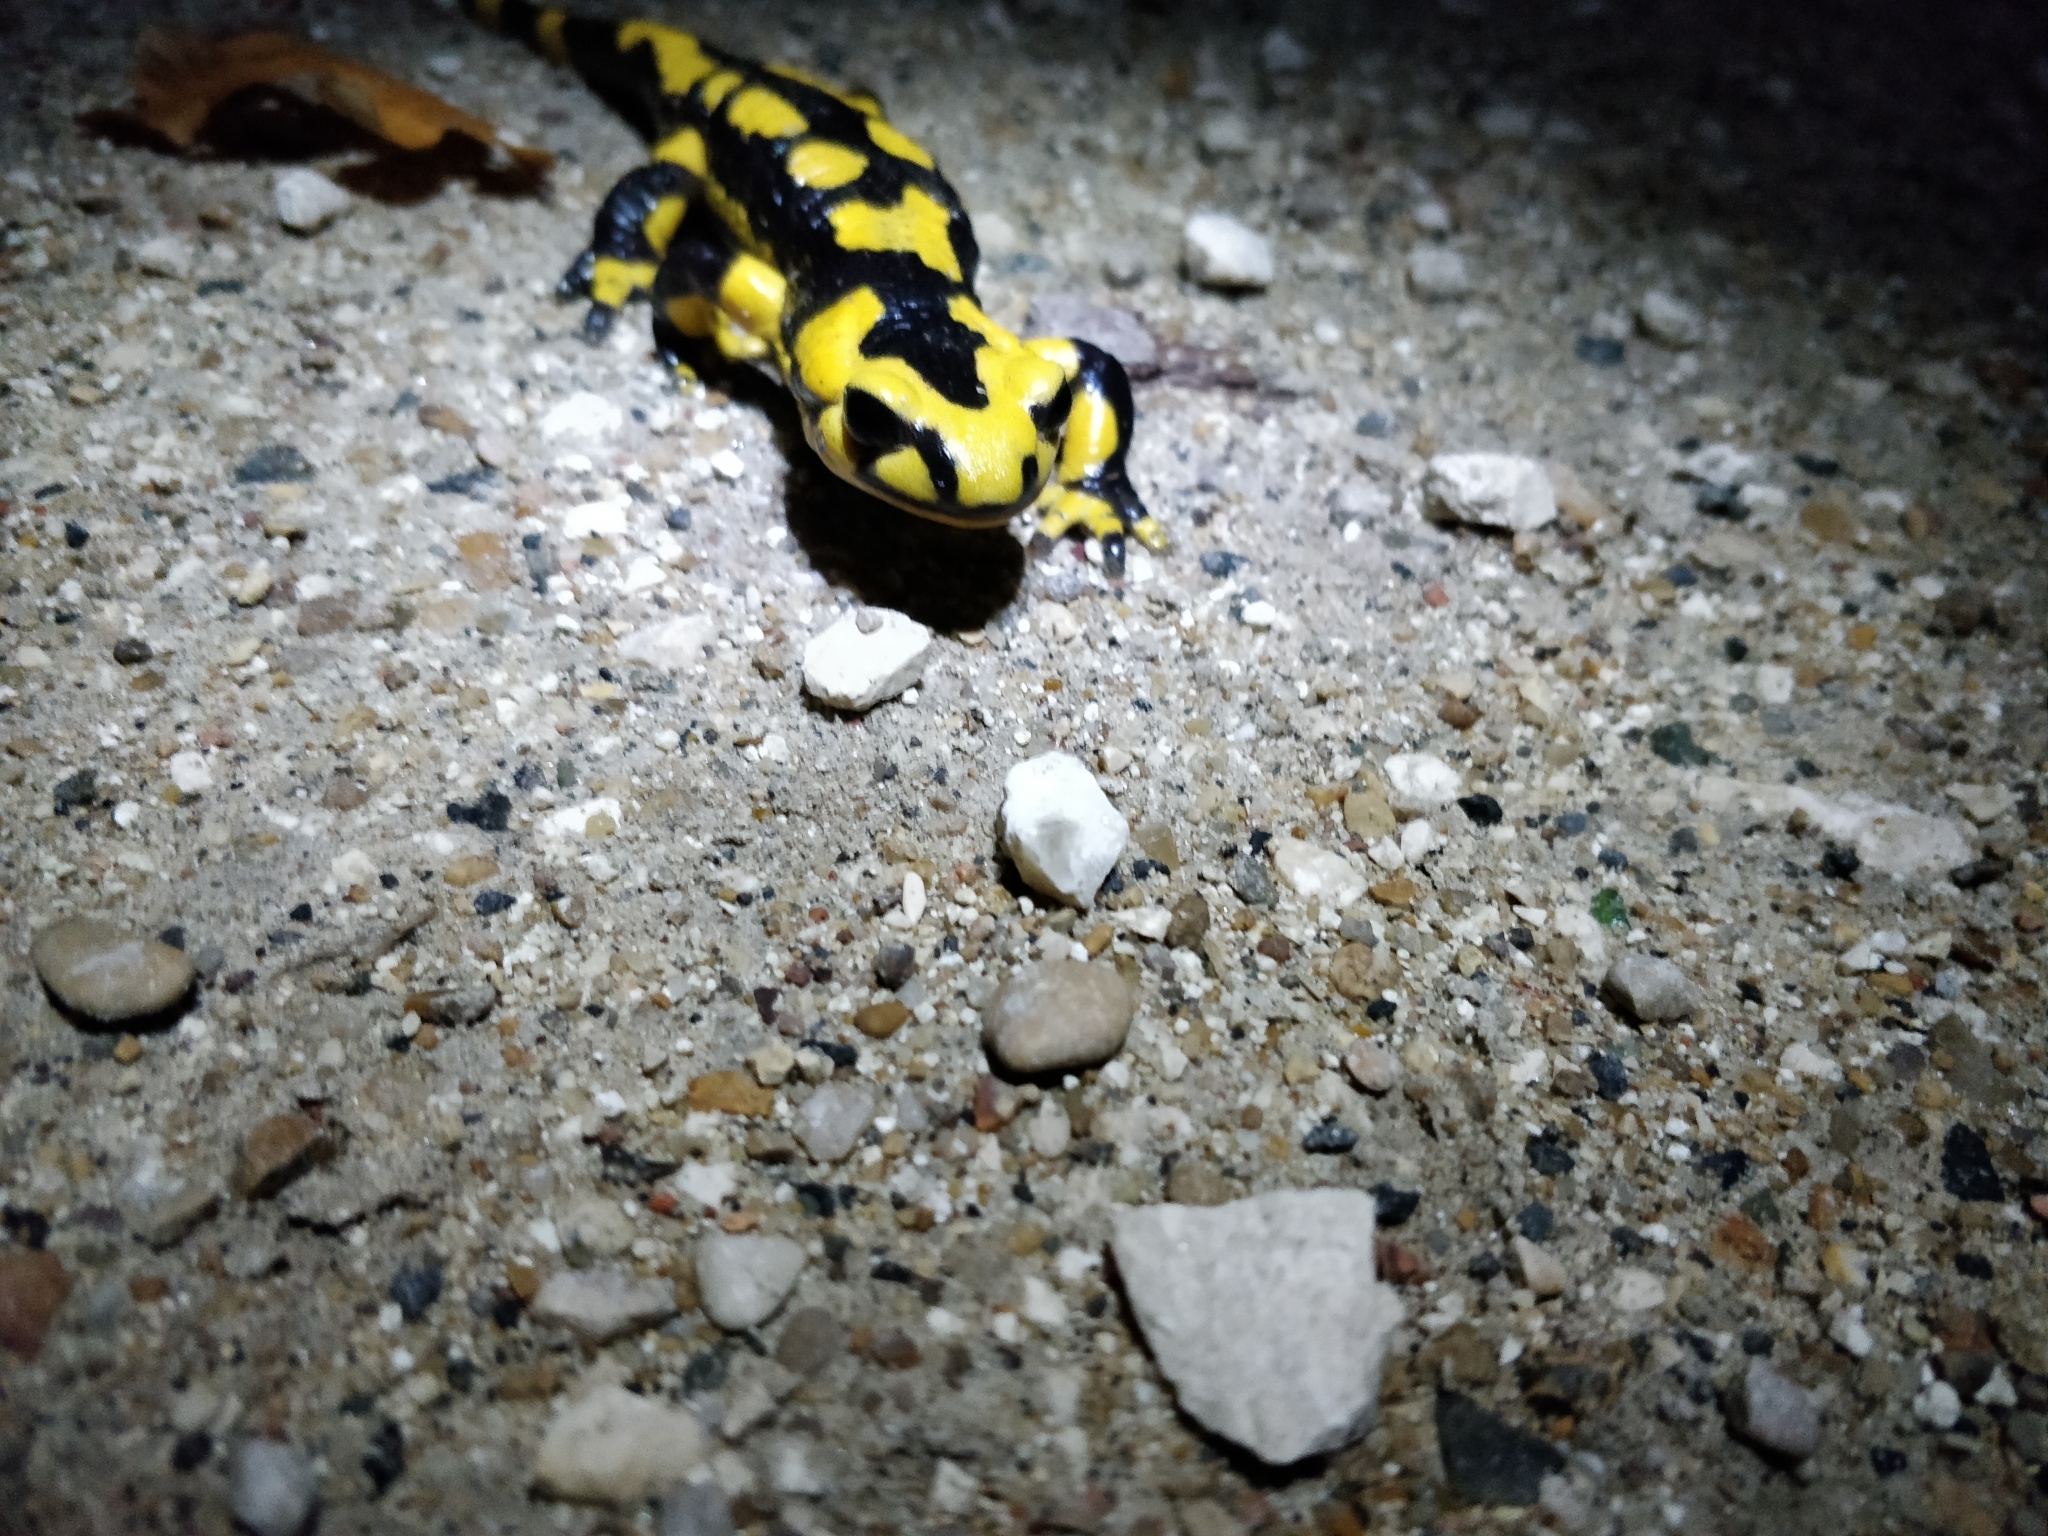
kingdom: Animalia
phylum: Chordata
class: Amphibia
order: Caudata
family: Salamandridae
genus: Salamandra
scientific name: Salamandra salamandra
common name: Fire salamander
